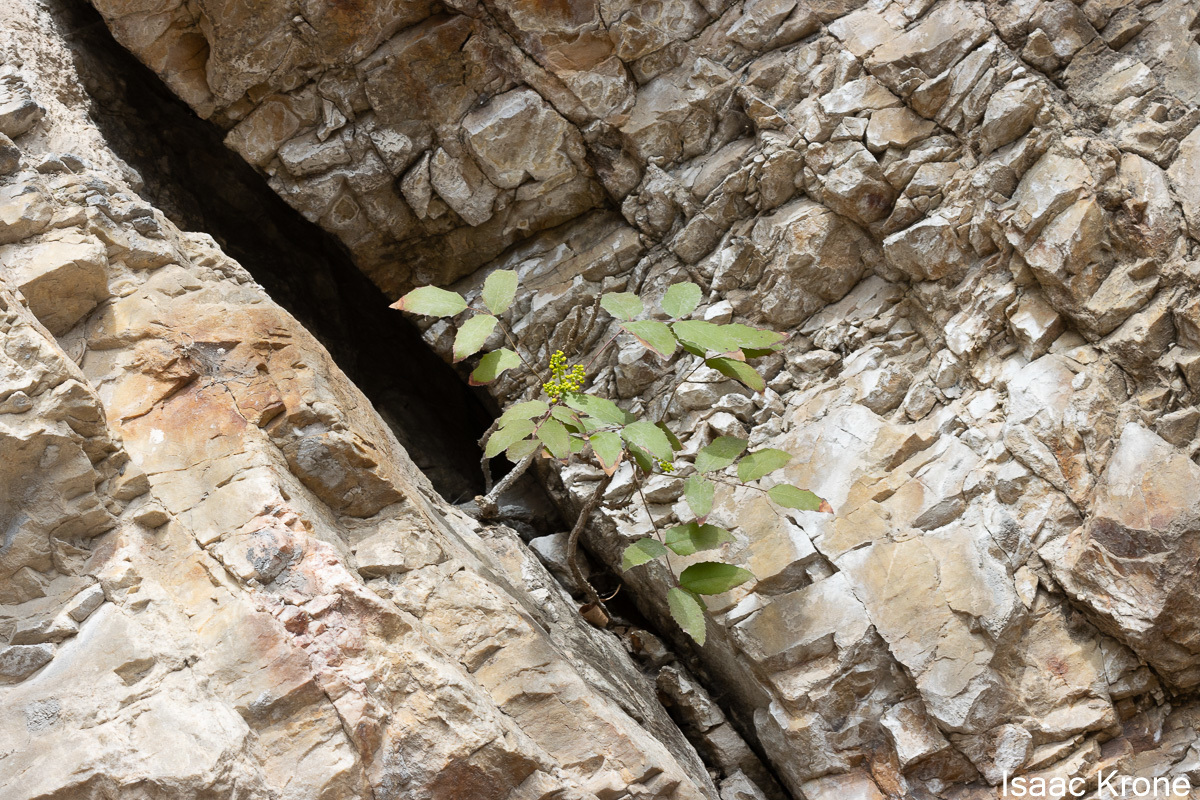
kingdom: Plantae
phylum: Tracheophyta
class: Magnoliopsida
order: Ranunculales
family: Berberidaceae
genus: Mahonia
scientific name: Mahonia aquifolium
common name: Oregon-grape
